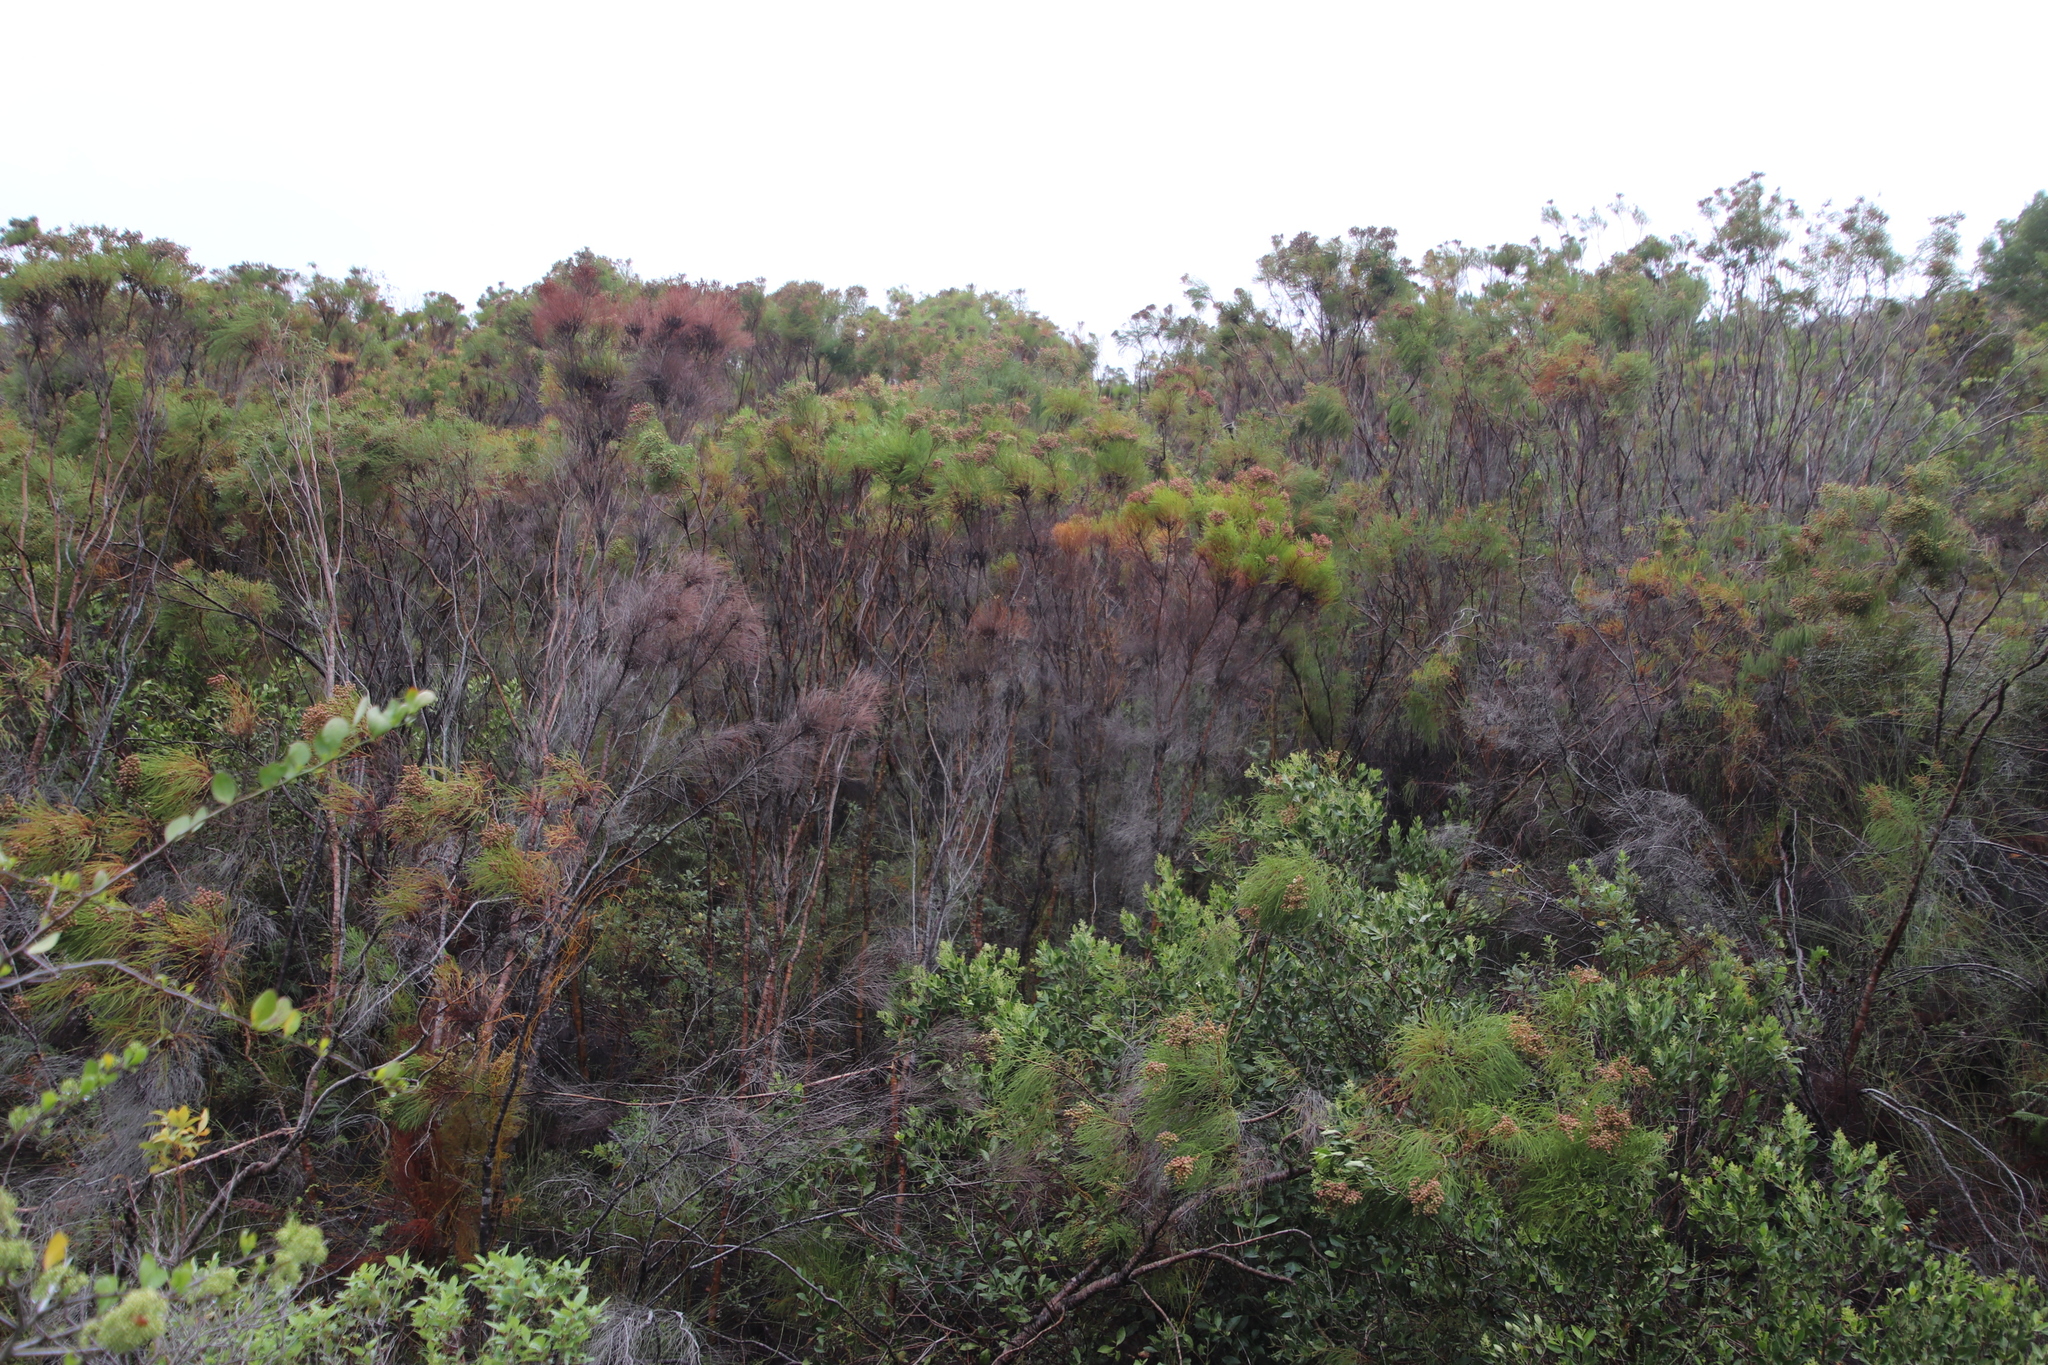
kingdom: Plantae
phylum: Tracheophyta
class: Magnoliopsida
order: Bruniales
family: Bruniaceae
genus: Berzelia
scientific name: Berzelia lanuginosa
